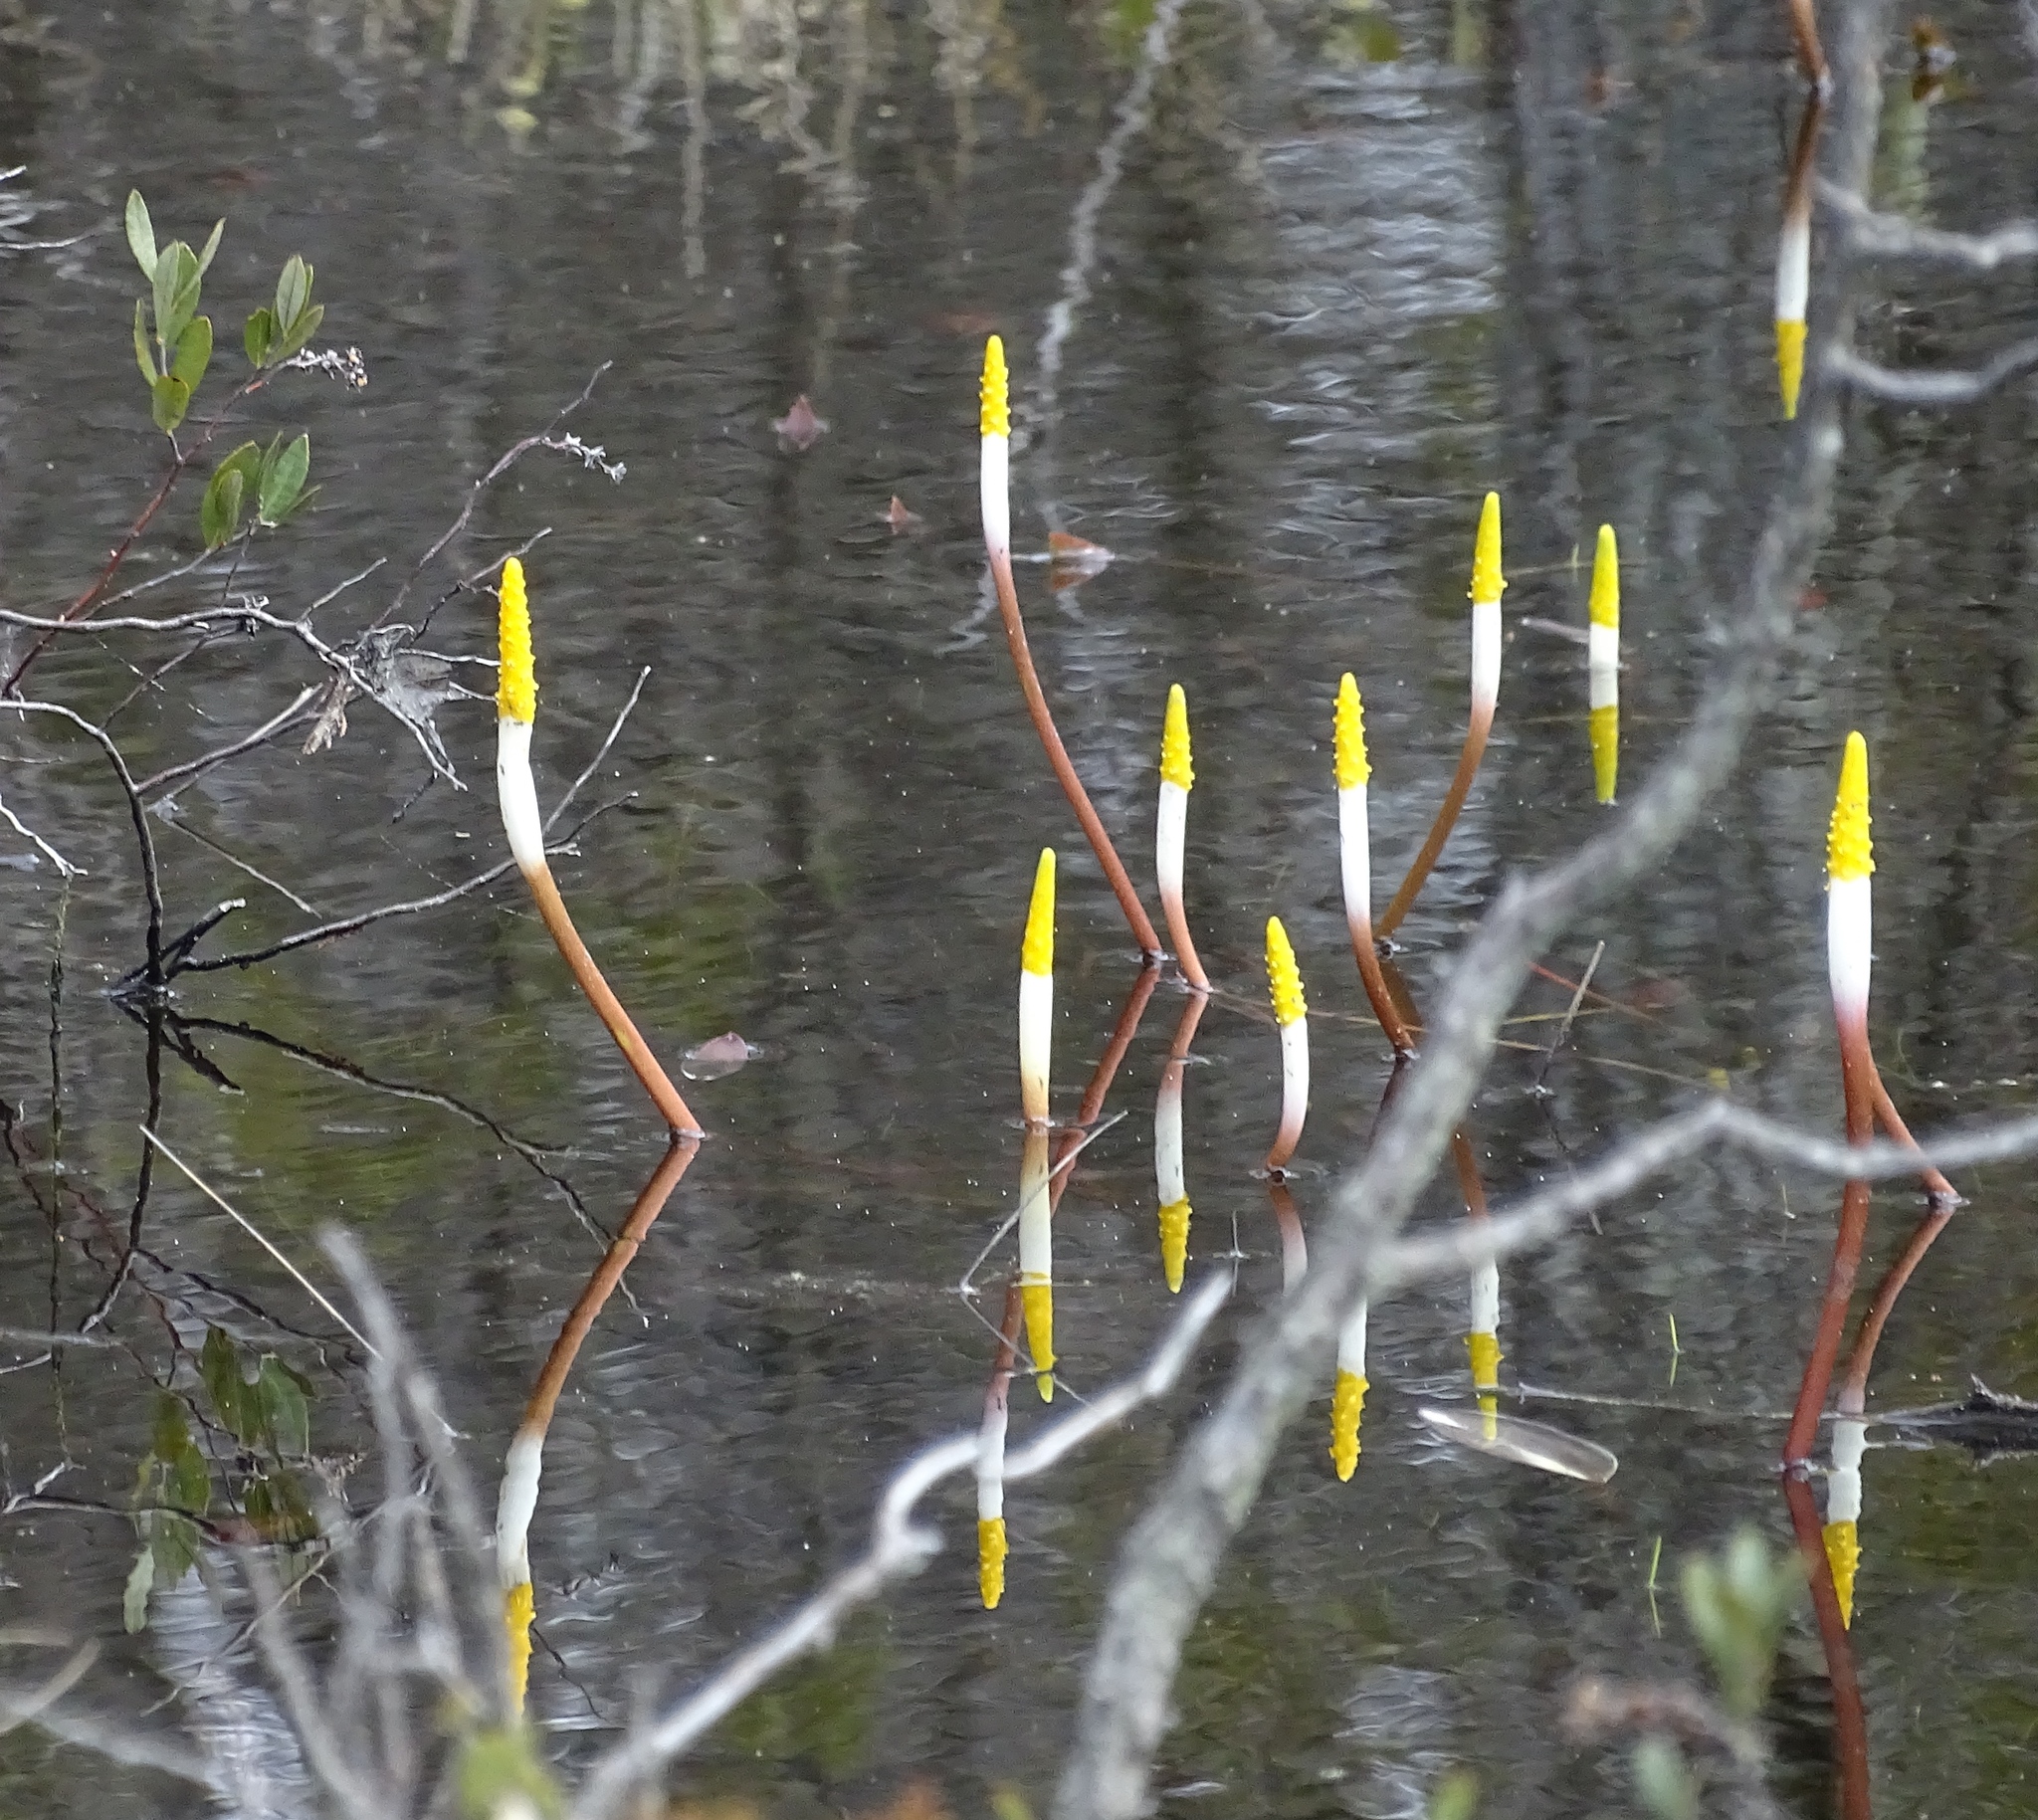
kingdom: Plantae
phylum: Tracheophyta
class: Liliopsida
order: Alismatales
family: Araceae
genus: Orontium
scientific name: Orontium aquaticum
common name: Golden-club
